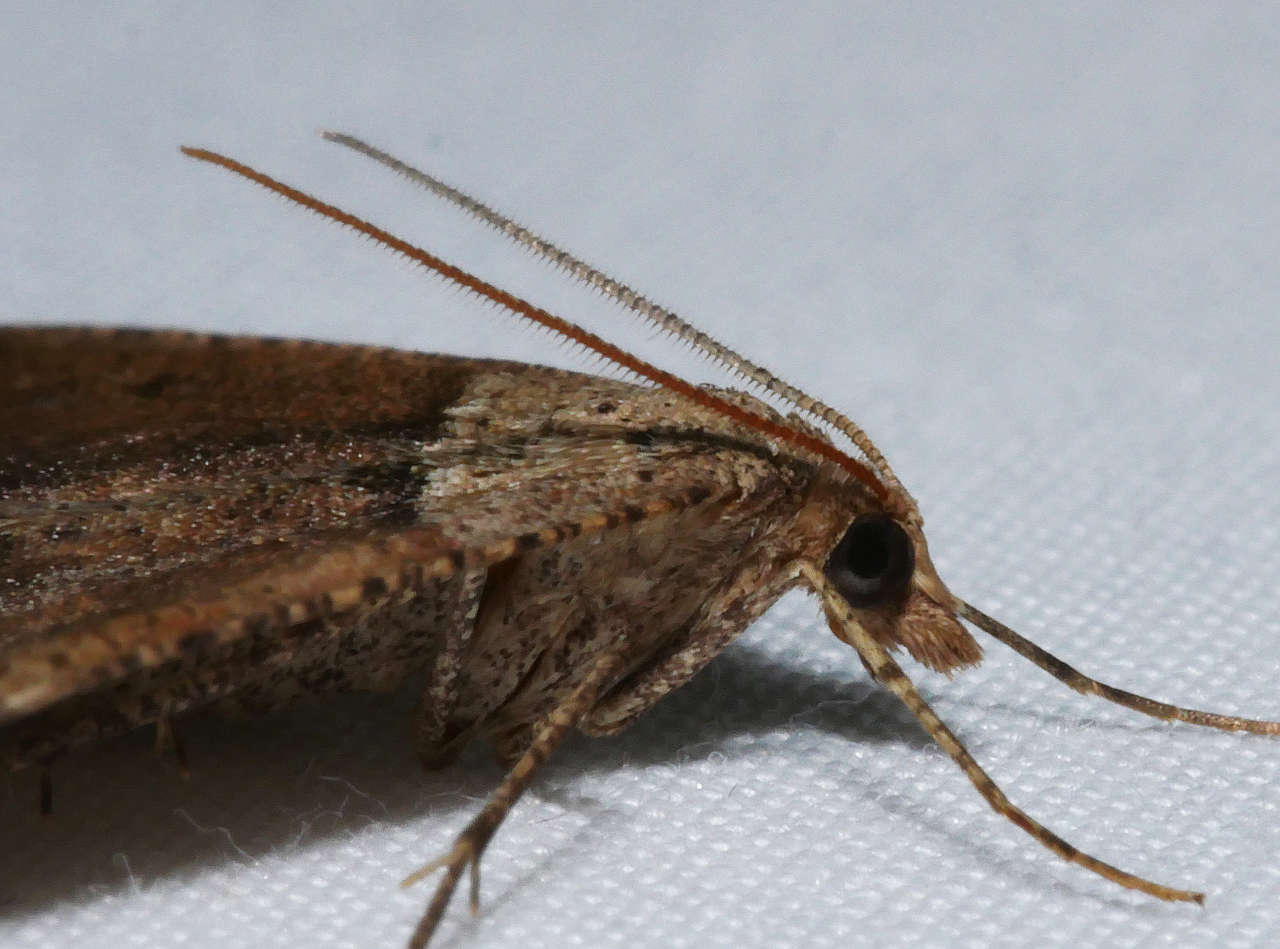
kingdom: Animalia
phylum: Arthropoda
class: Insecta
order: Lepidoptera
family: Geometridae
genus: Parosteodes
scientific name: Parosteodes fictiliaria
